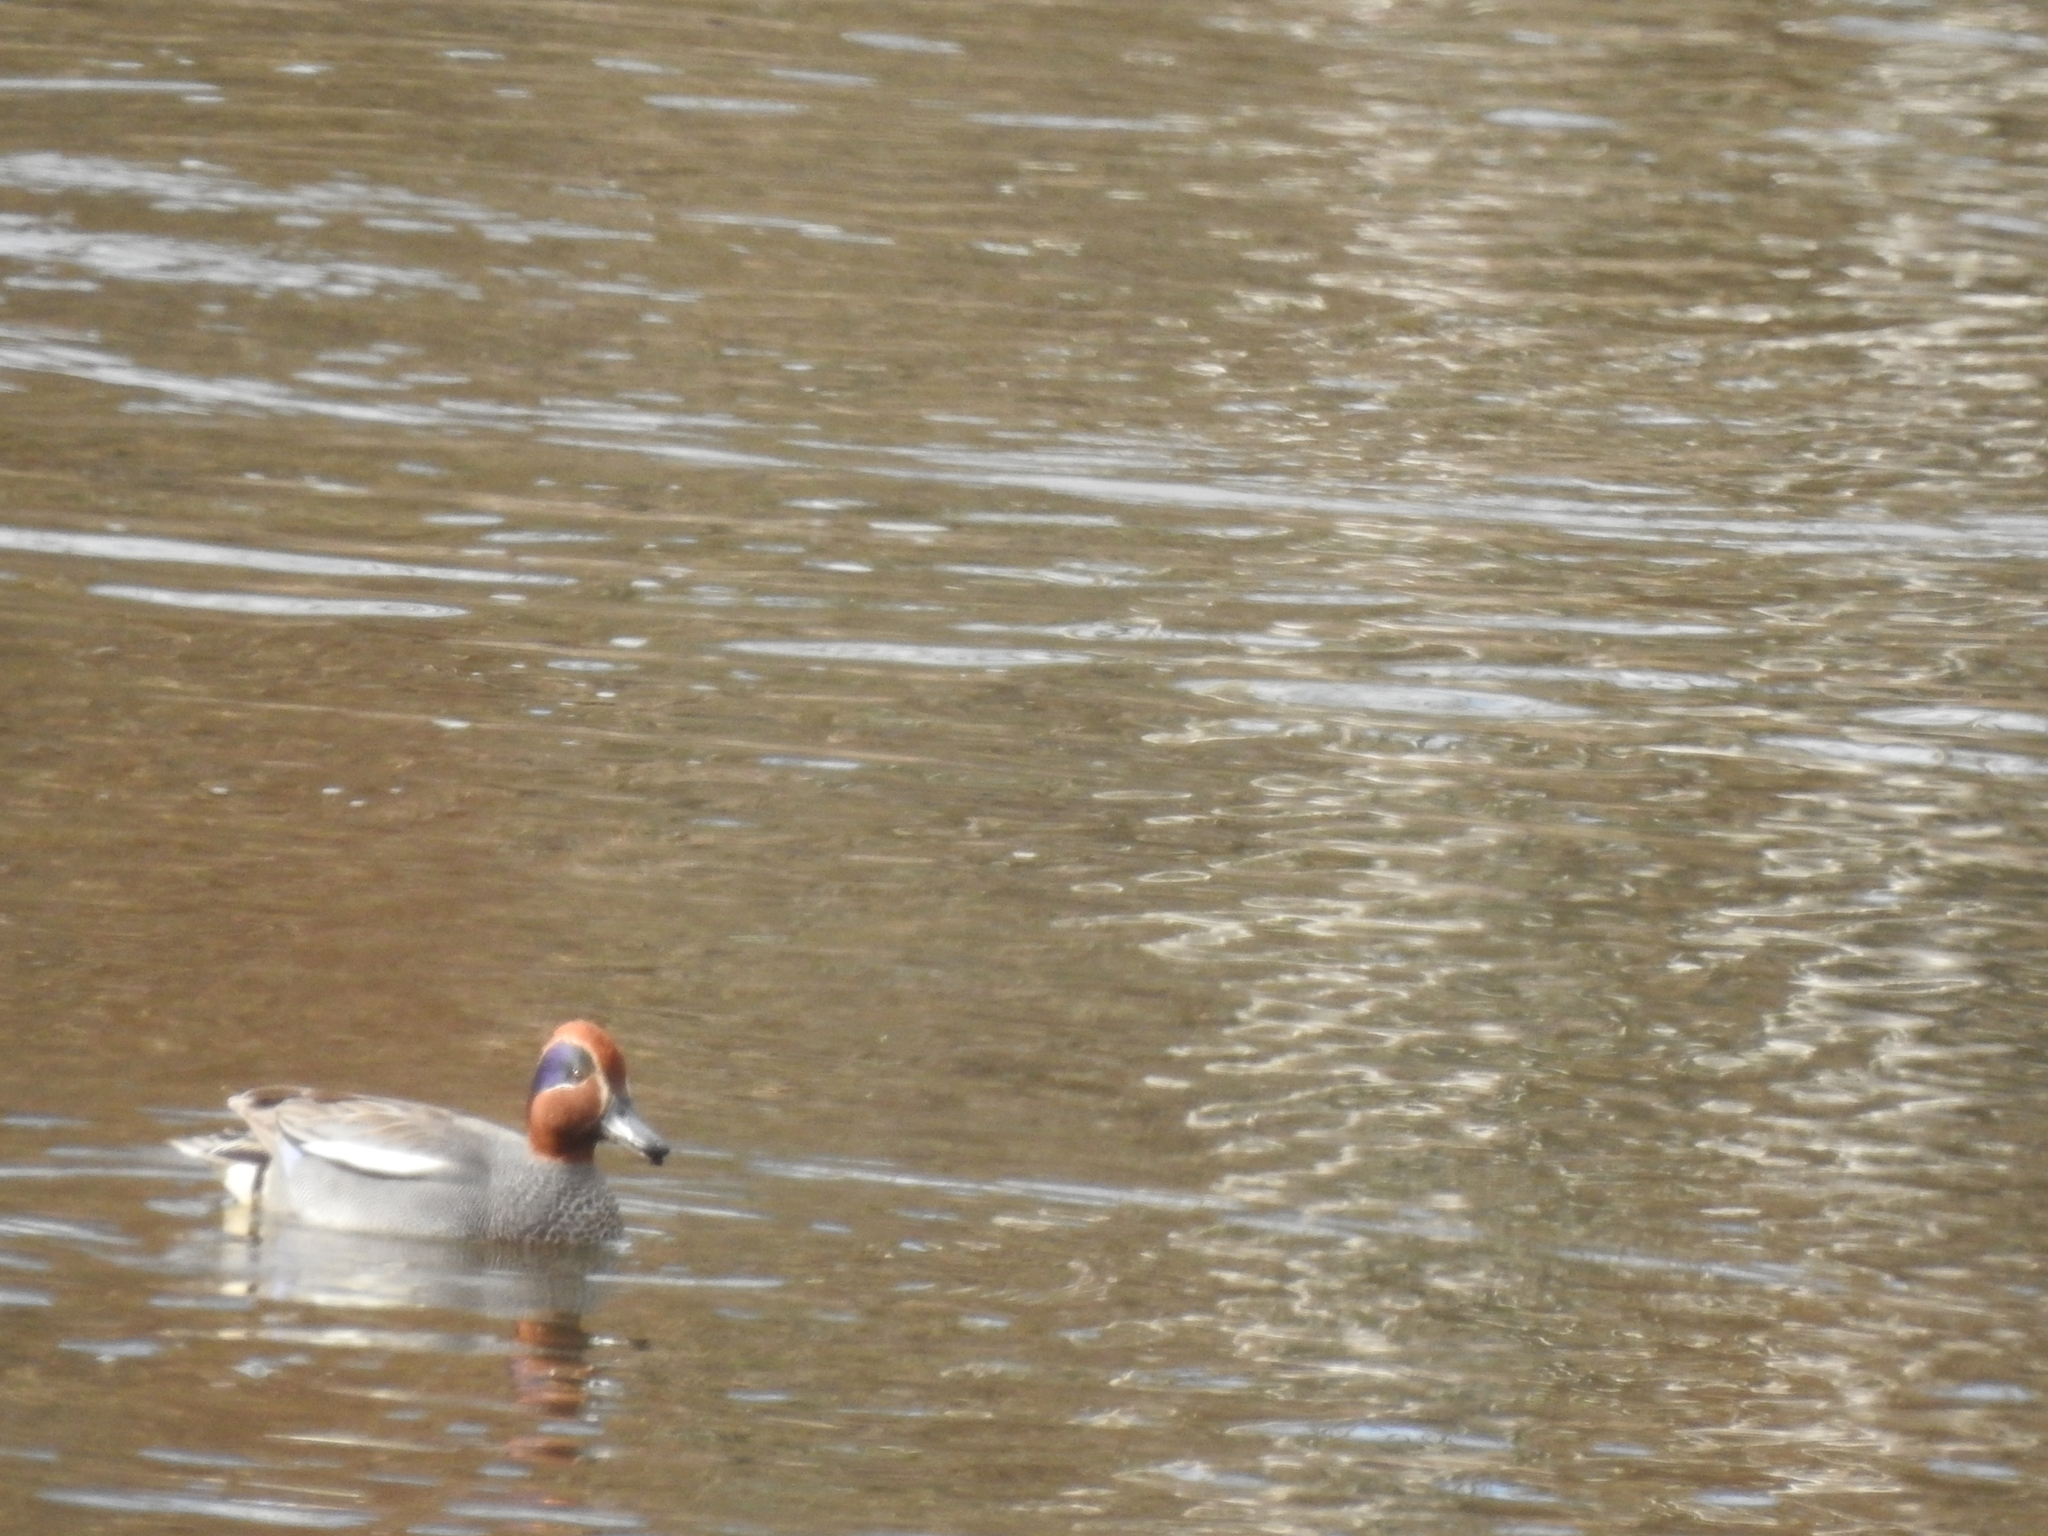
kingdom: Animalia
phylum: Chordata
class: Aves
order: Anseriformes
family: Anatidae
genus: Anas
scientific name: Anas crecca
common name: Eurasian teal
